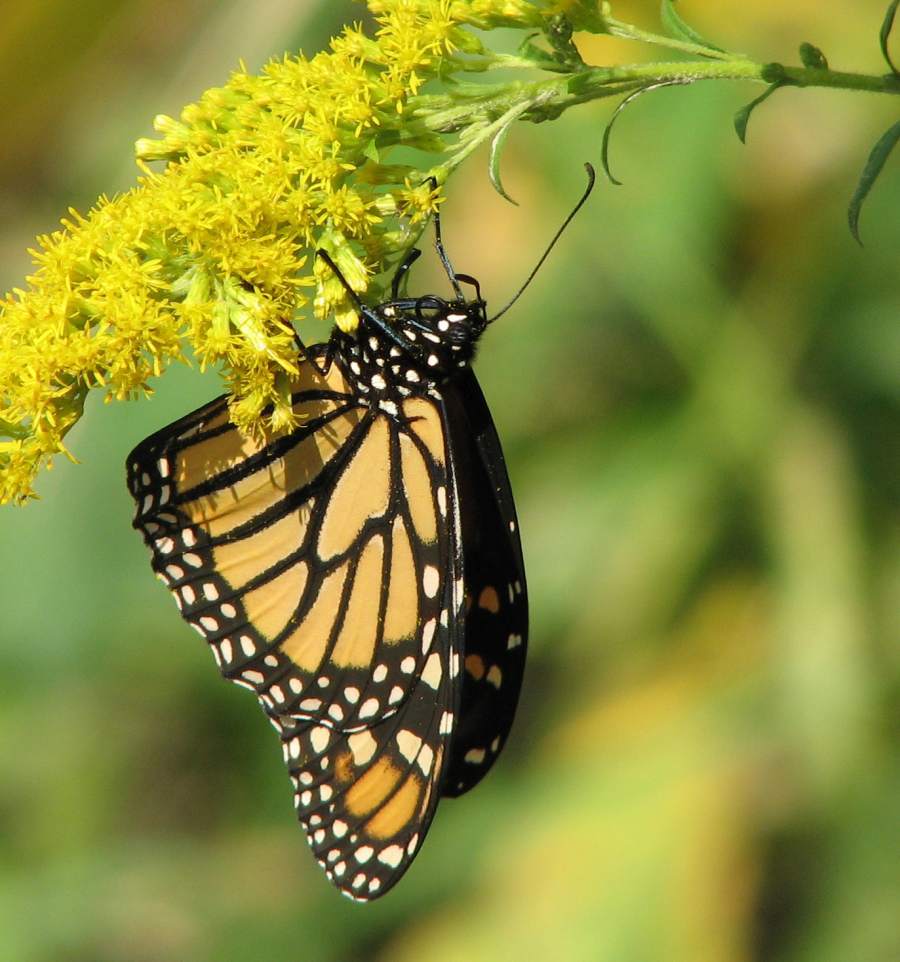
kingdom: Animalia
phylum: Arthropoda
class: Insecta
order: Lepidoptera
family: Nymphalidae
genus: Danaus
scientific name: Danaus plexippus
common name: Monarch
